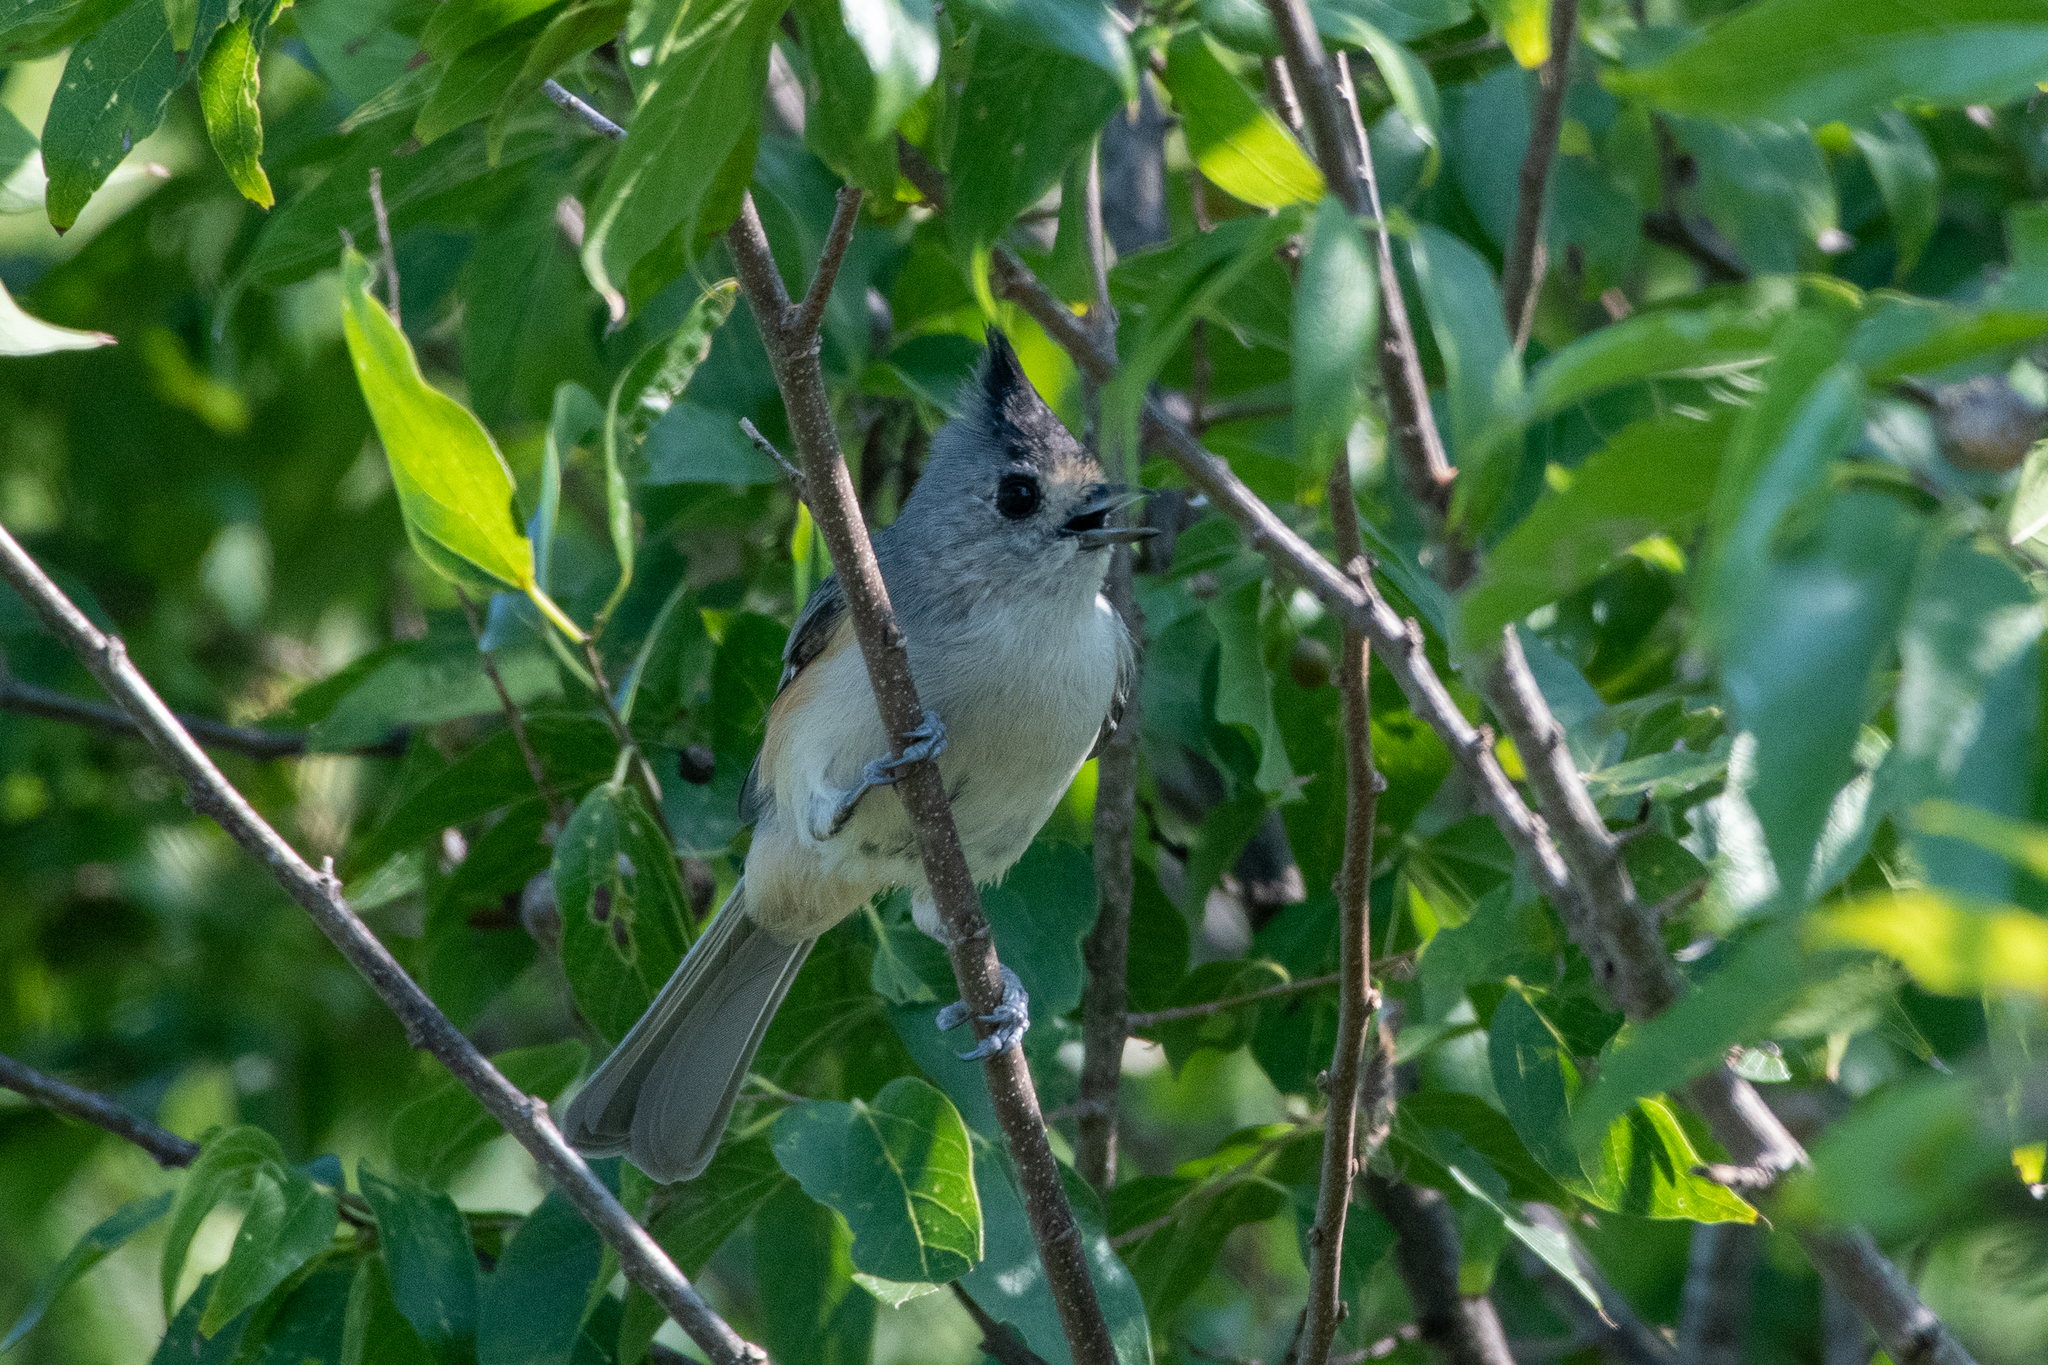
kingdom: Animalia
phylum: Chordata
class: Aves
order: Passeriformes
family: Paridae
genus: Baeolophus
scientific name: Baeolophus atricristatus
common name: Black-crested titmouse
